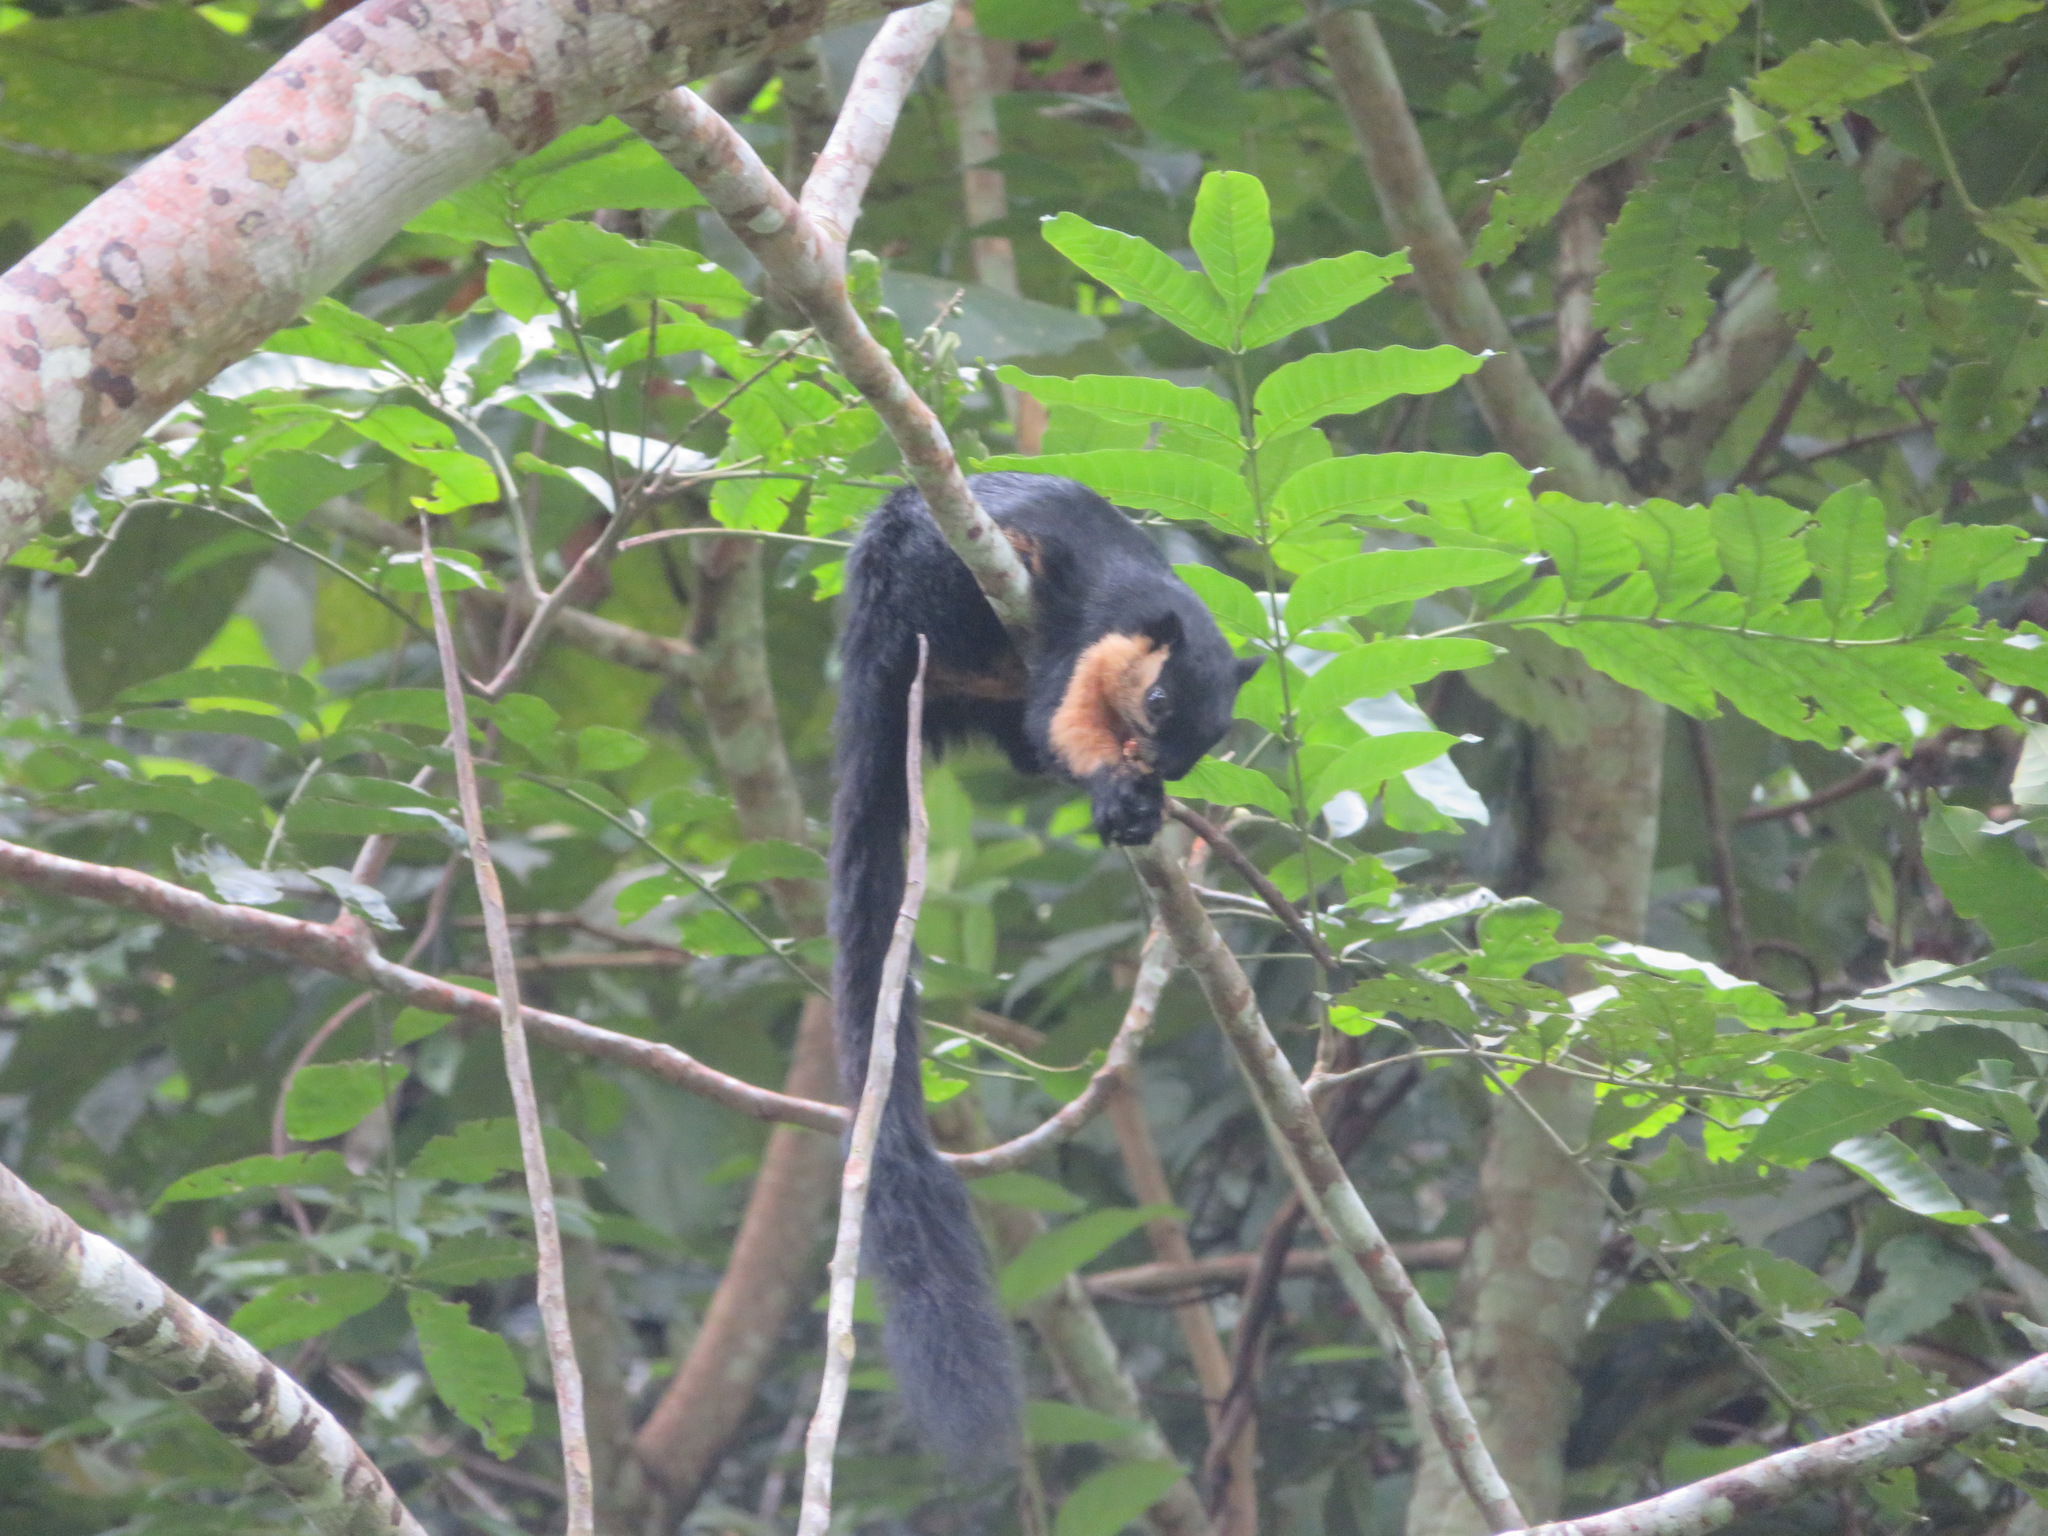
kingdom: Animalia
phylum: Chordata
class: Mammalia
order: Rodentia
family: Sciuridae
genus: Ratufa
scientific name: Ratufa bicolor
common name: Black giant squirrel
